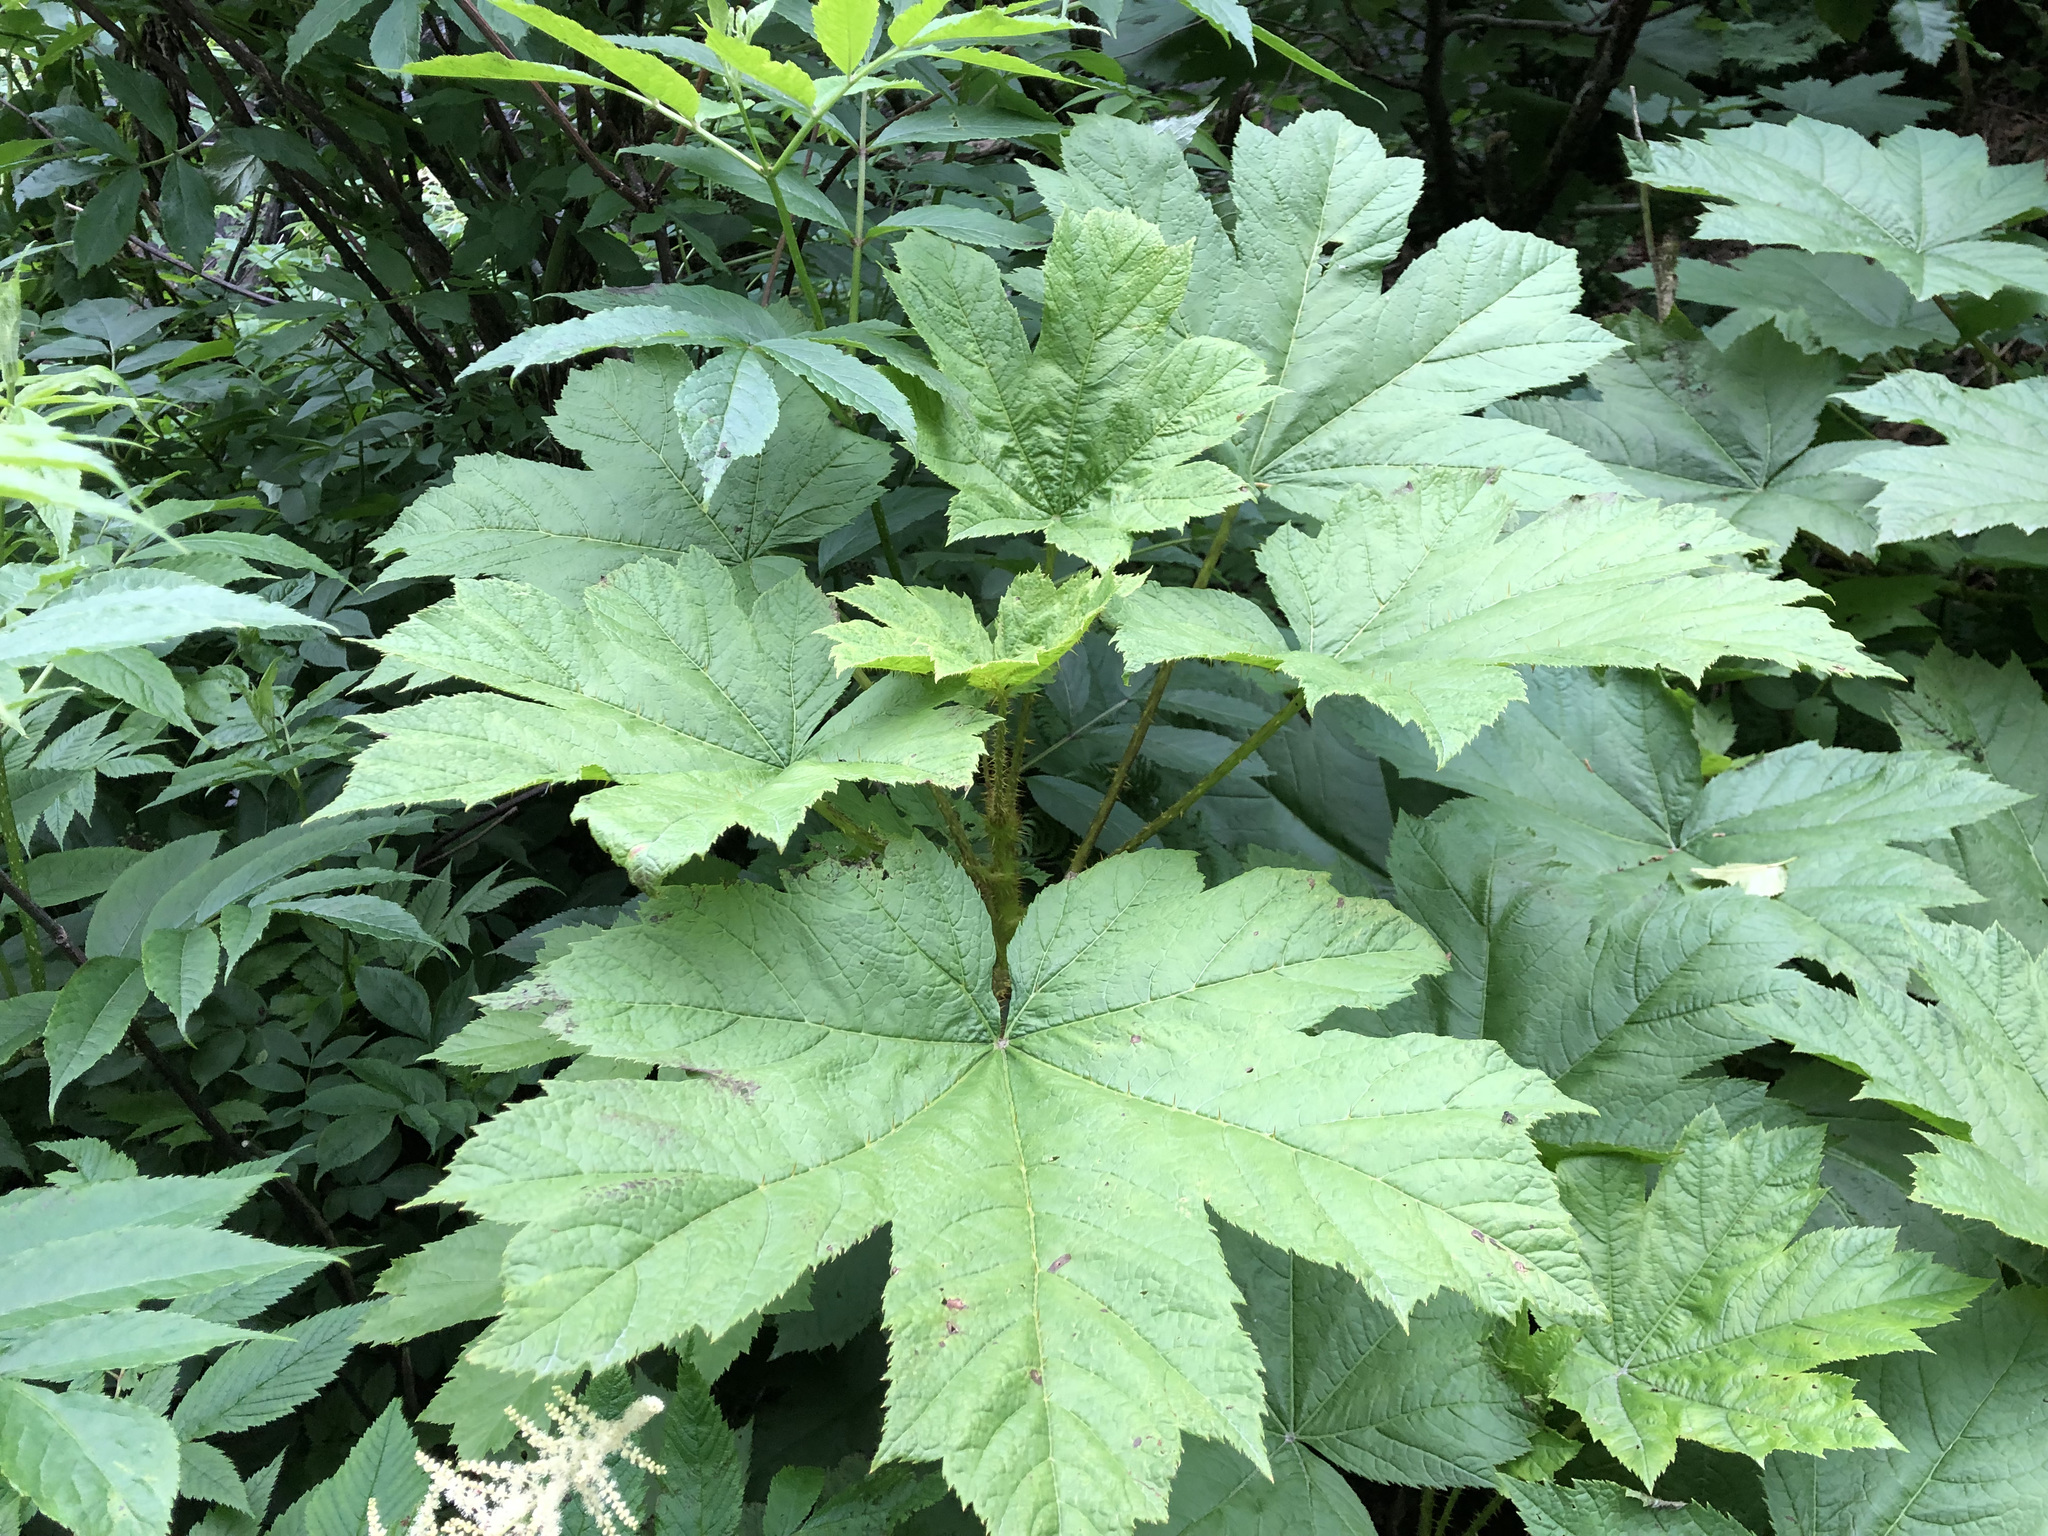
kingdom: Plantae
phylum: Tracheophyta
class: Magnoliopsida
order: Apiales
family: Araliaceae
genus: Oplopanax
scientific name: Oplopanax horridus
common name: Devil's walking-stick
